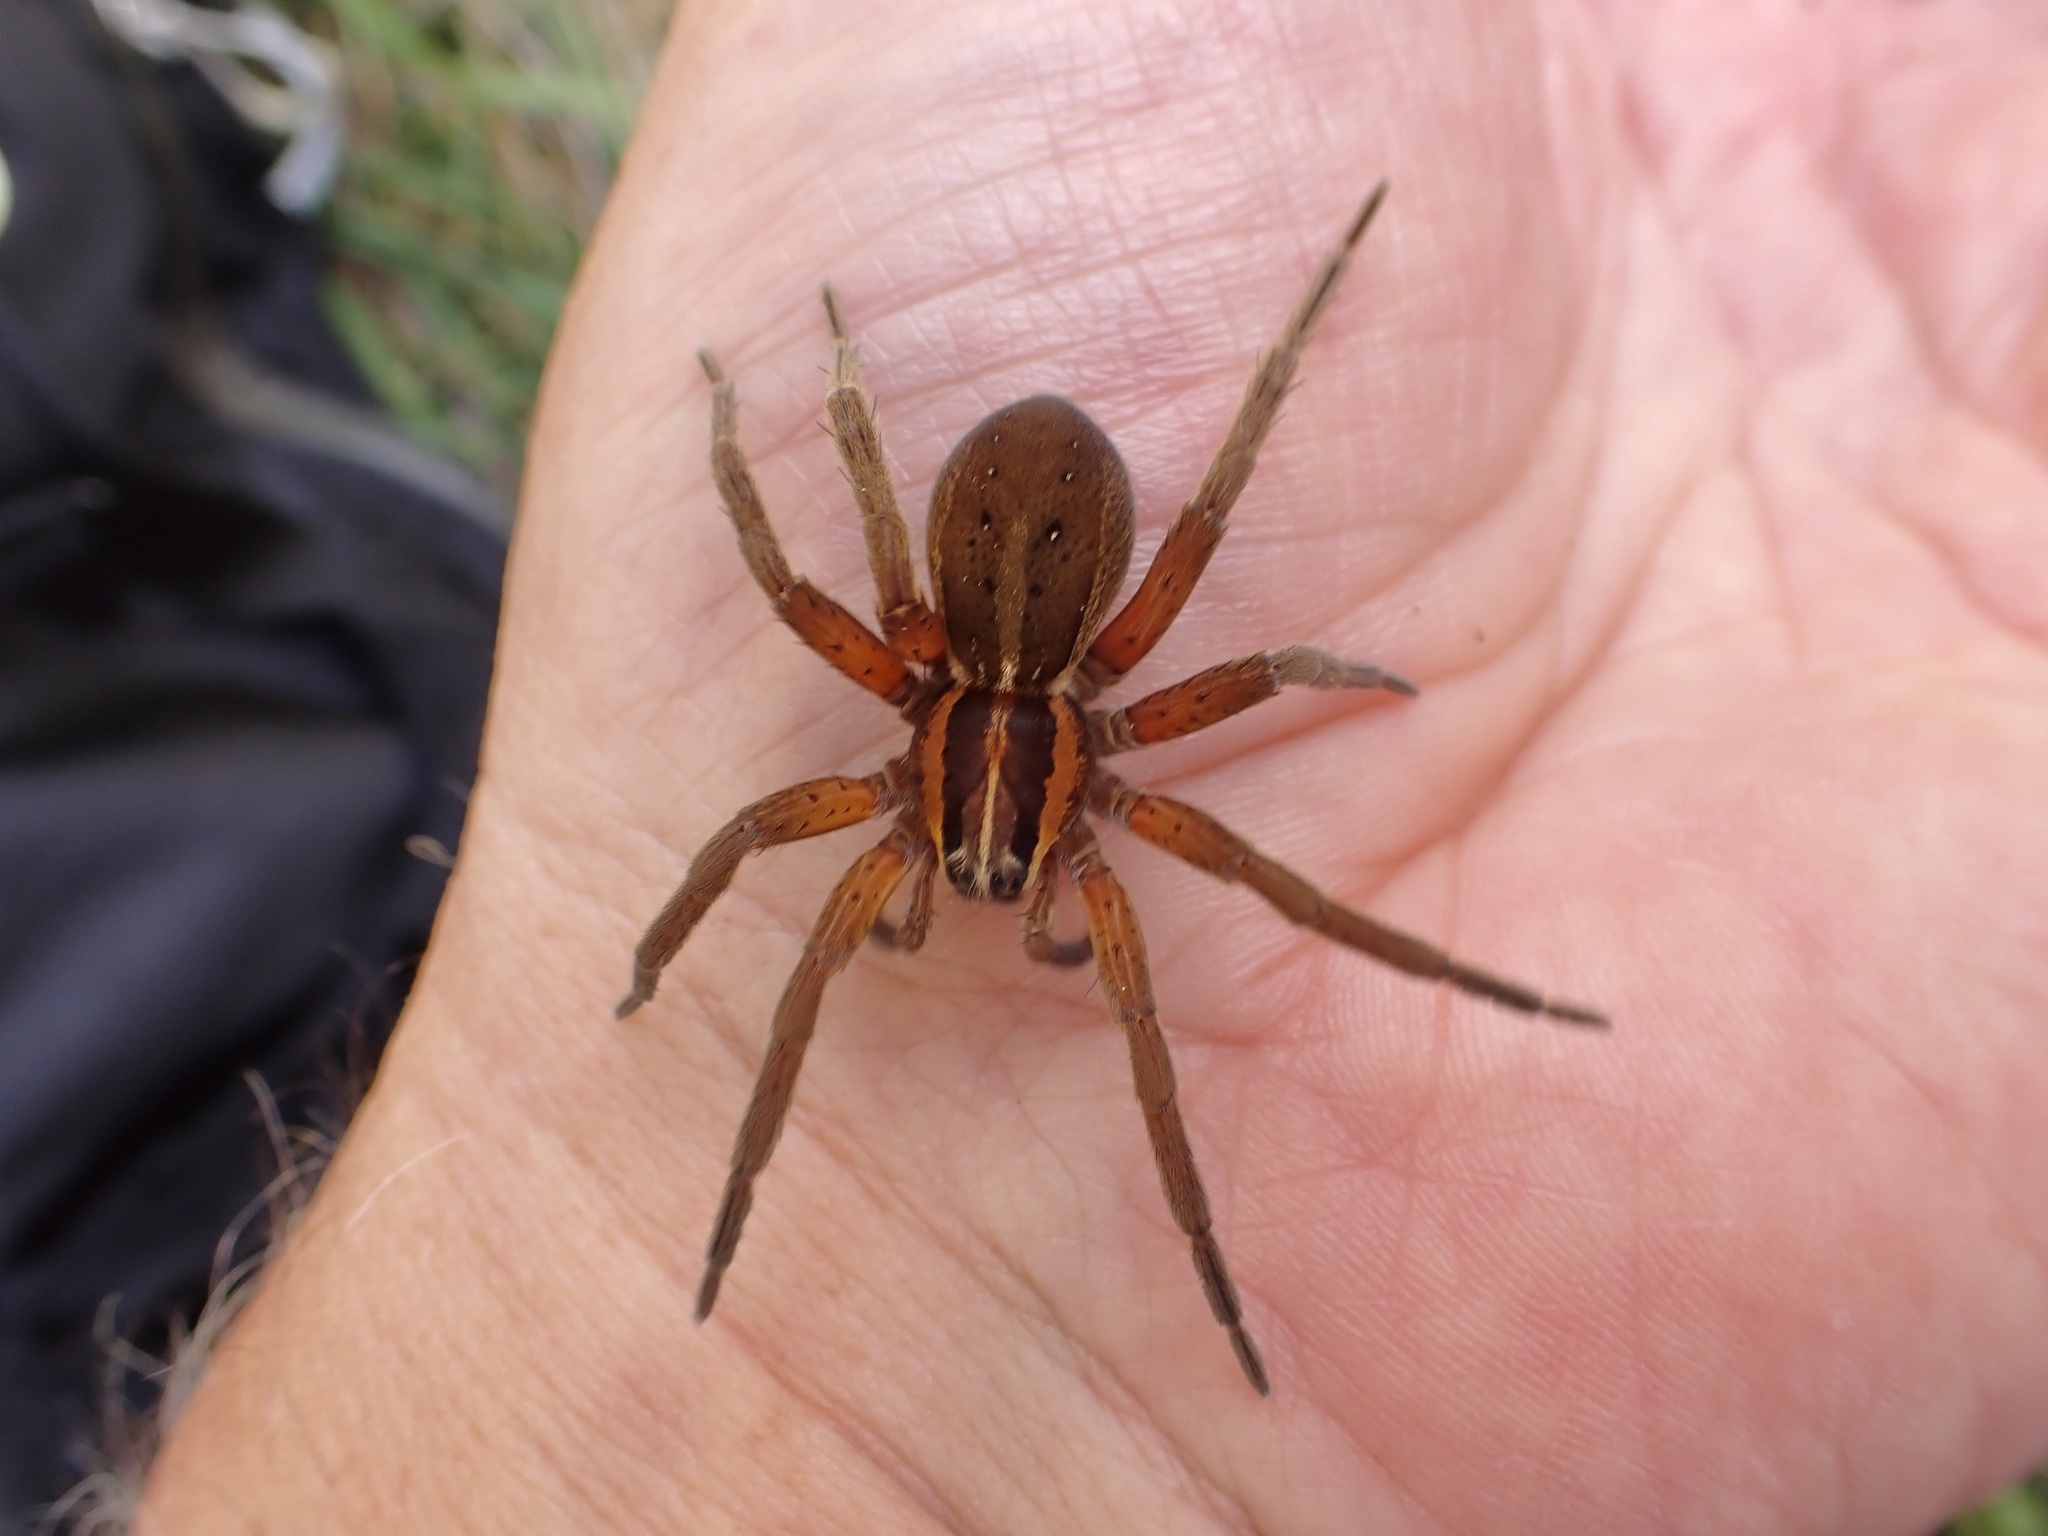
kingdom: Animalia
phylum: Arthropoda
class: Arachnida
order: Araneae
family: Pisauridae
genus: Dolomedes
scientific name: Dolomedes minor
